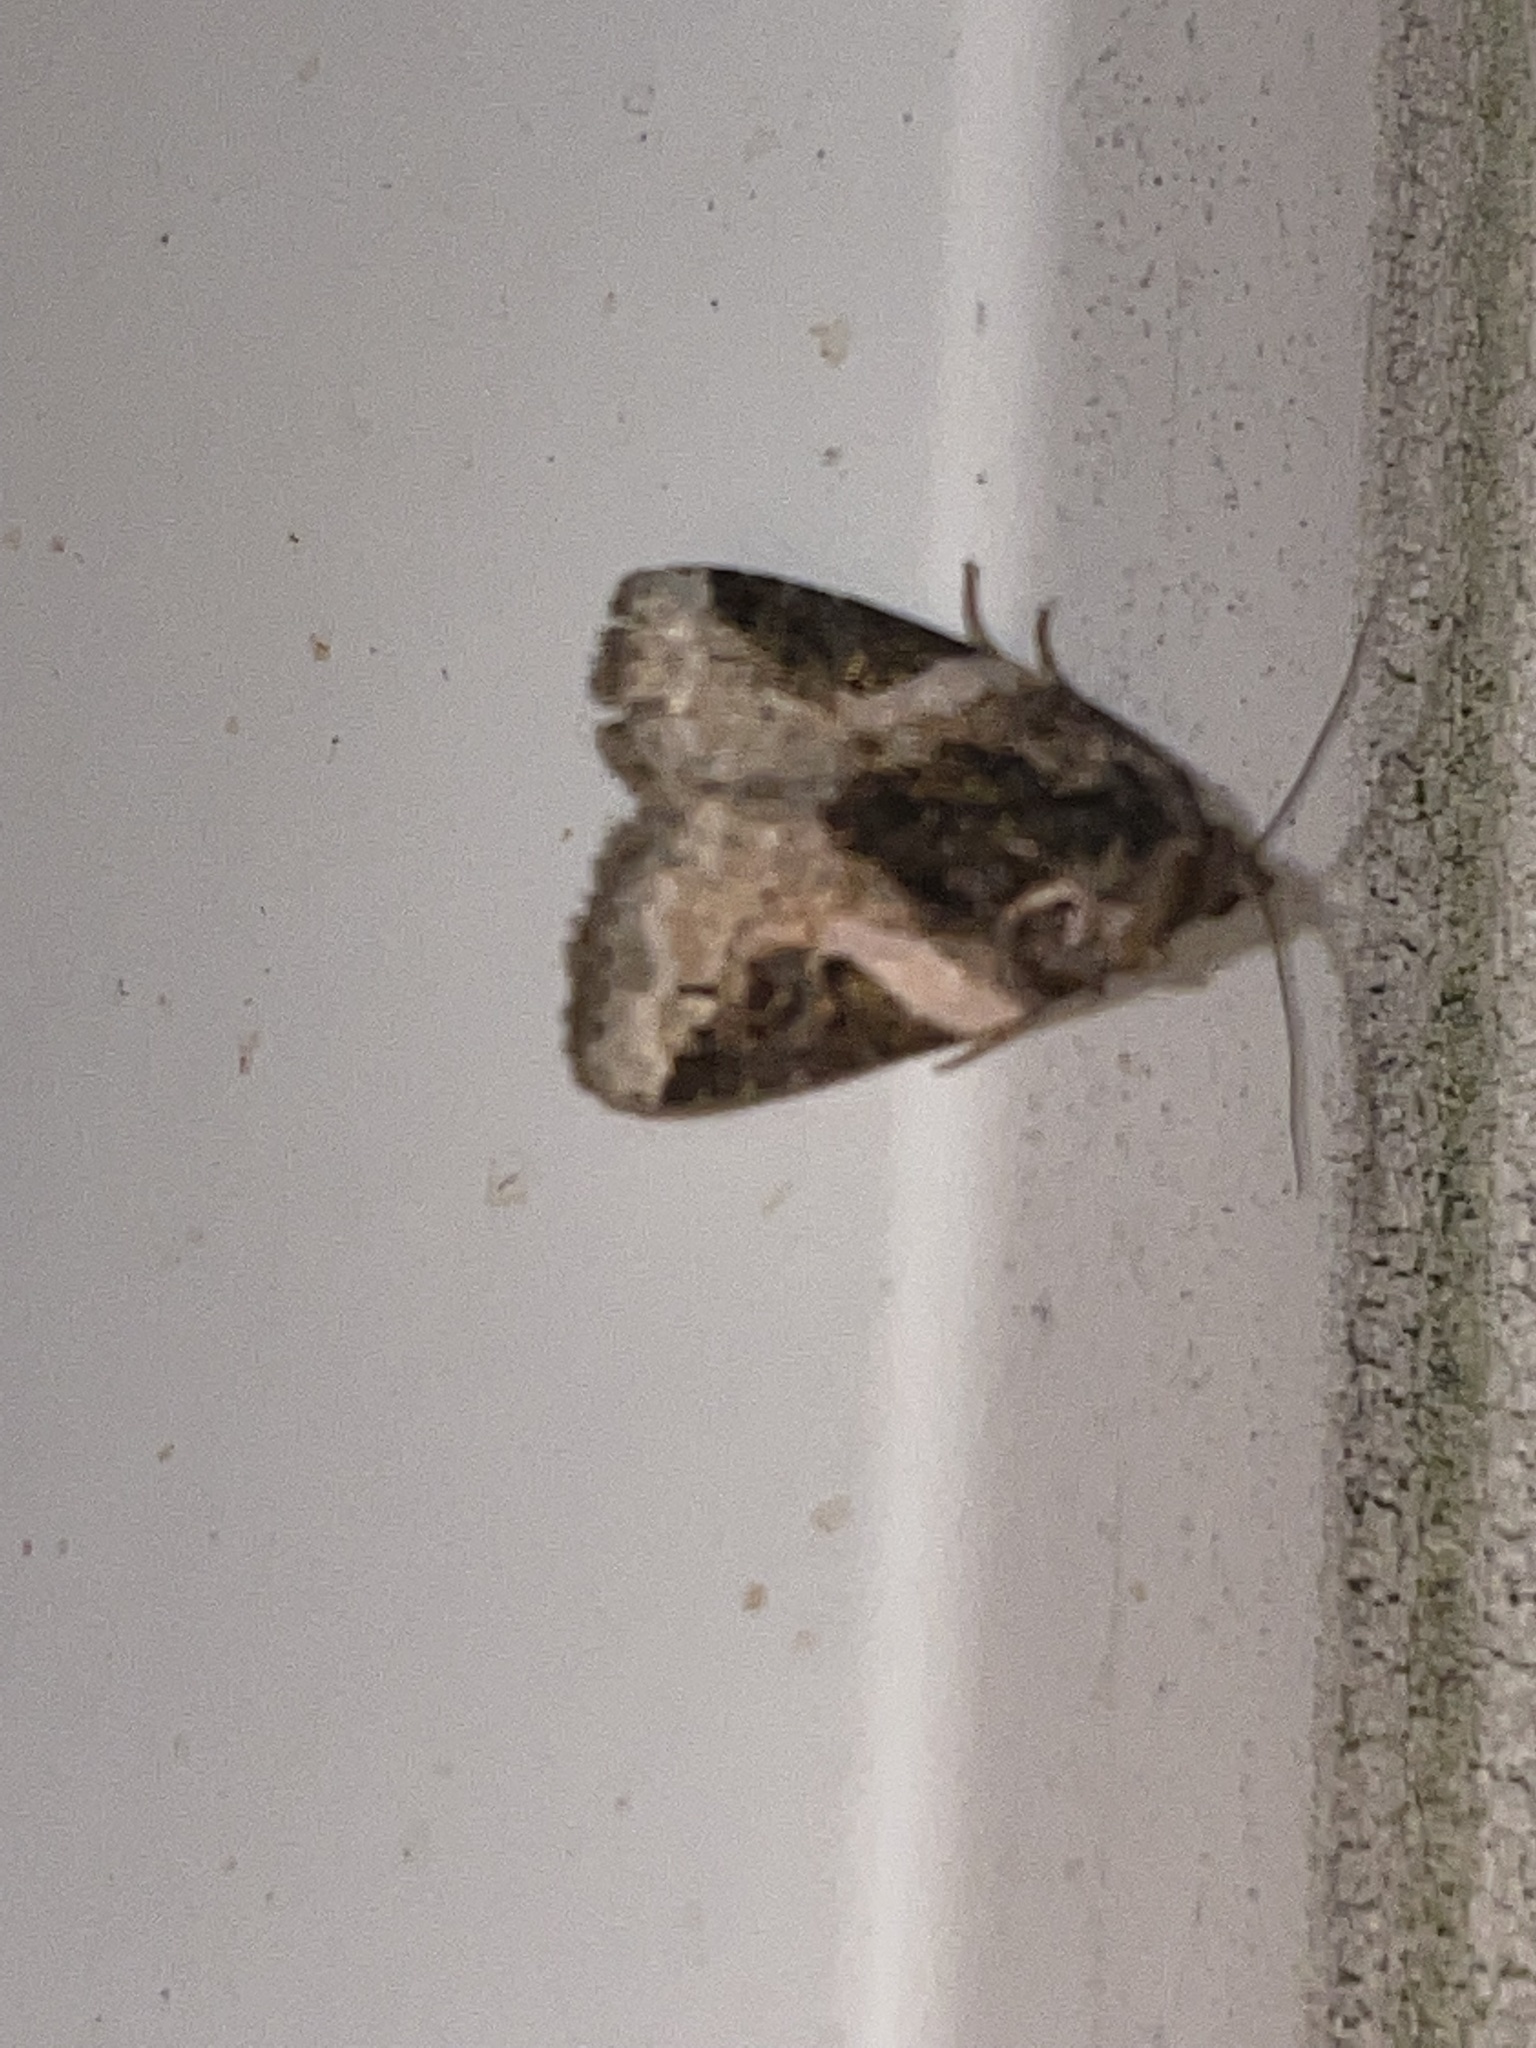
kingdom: Animalia
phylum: Arthropoda
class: Insecta
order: Lepidoptera
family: Noctuidae
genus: Pseudeustrotia
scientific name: Pseudeustrotia carneola
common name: Pink-barred lithacodia moth
